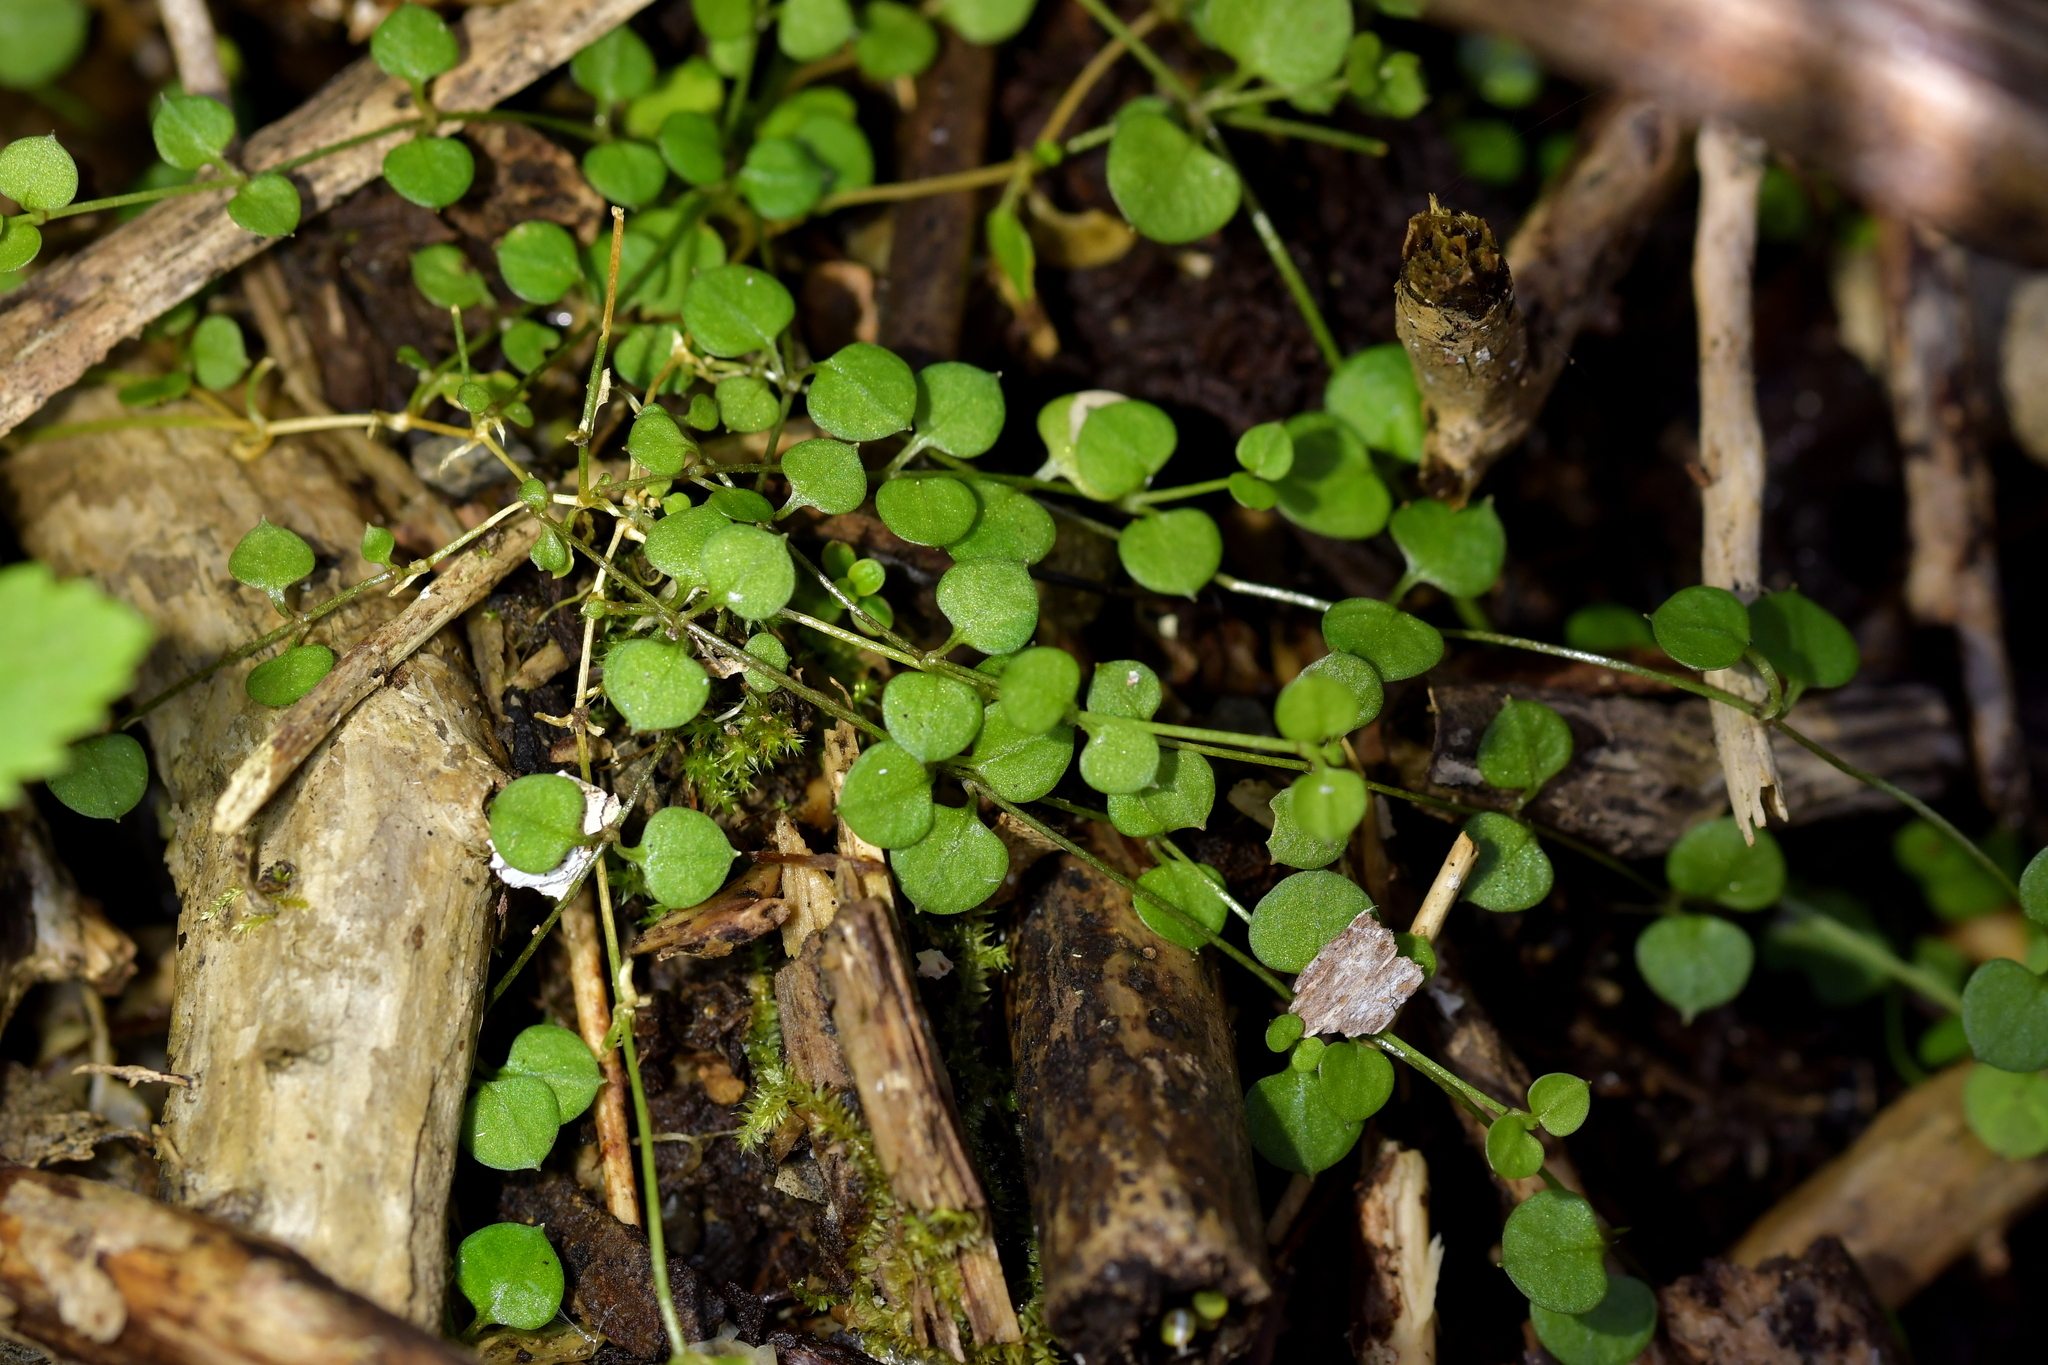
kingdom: Plantae
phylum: Tracheophyta
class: Magnoliopsida
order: Caryophyllales
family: Caryophyllaceae
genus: Stellaria
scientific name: Stellaria parviflora
